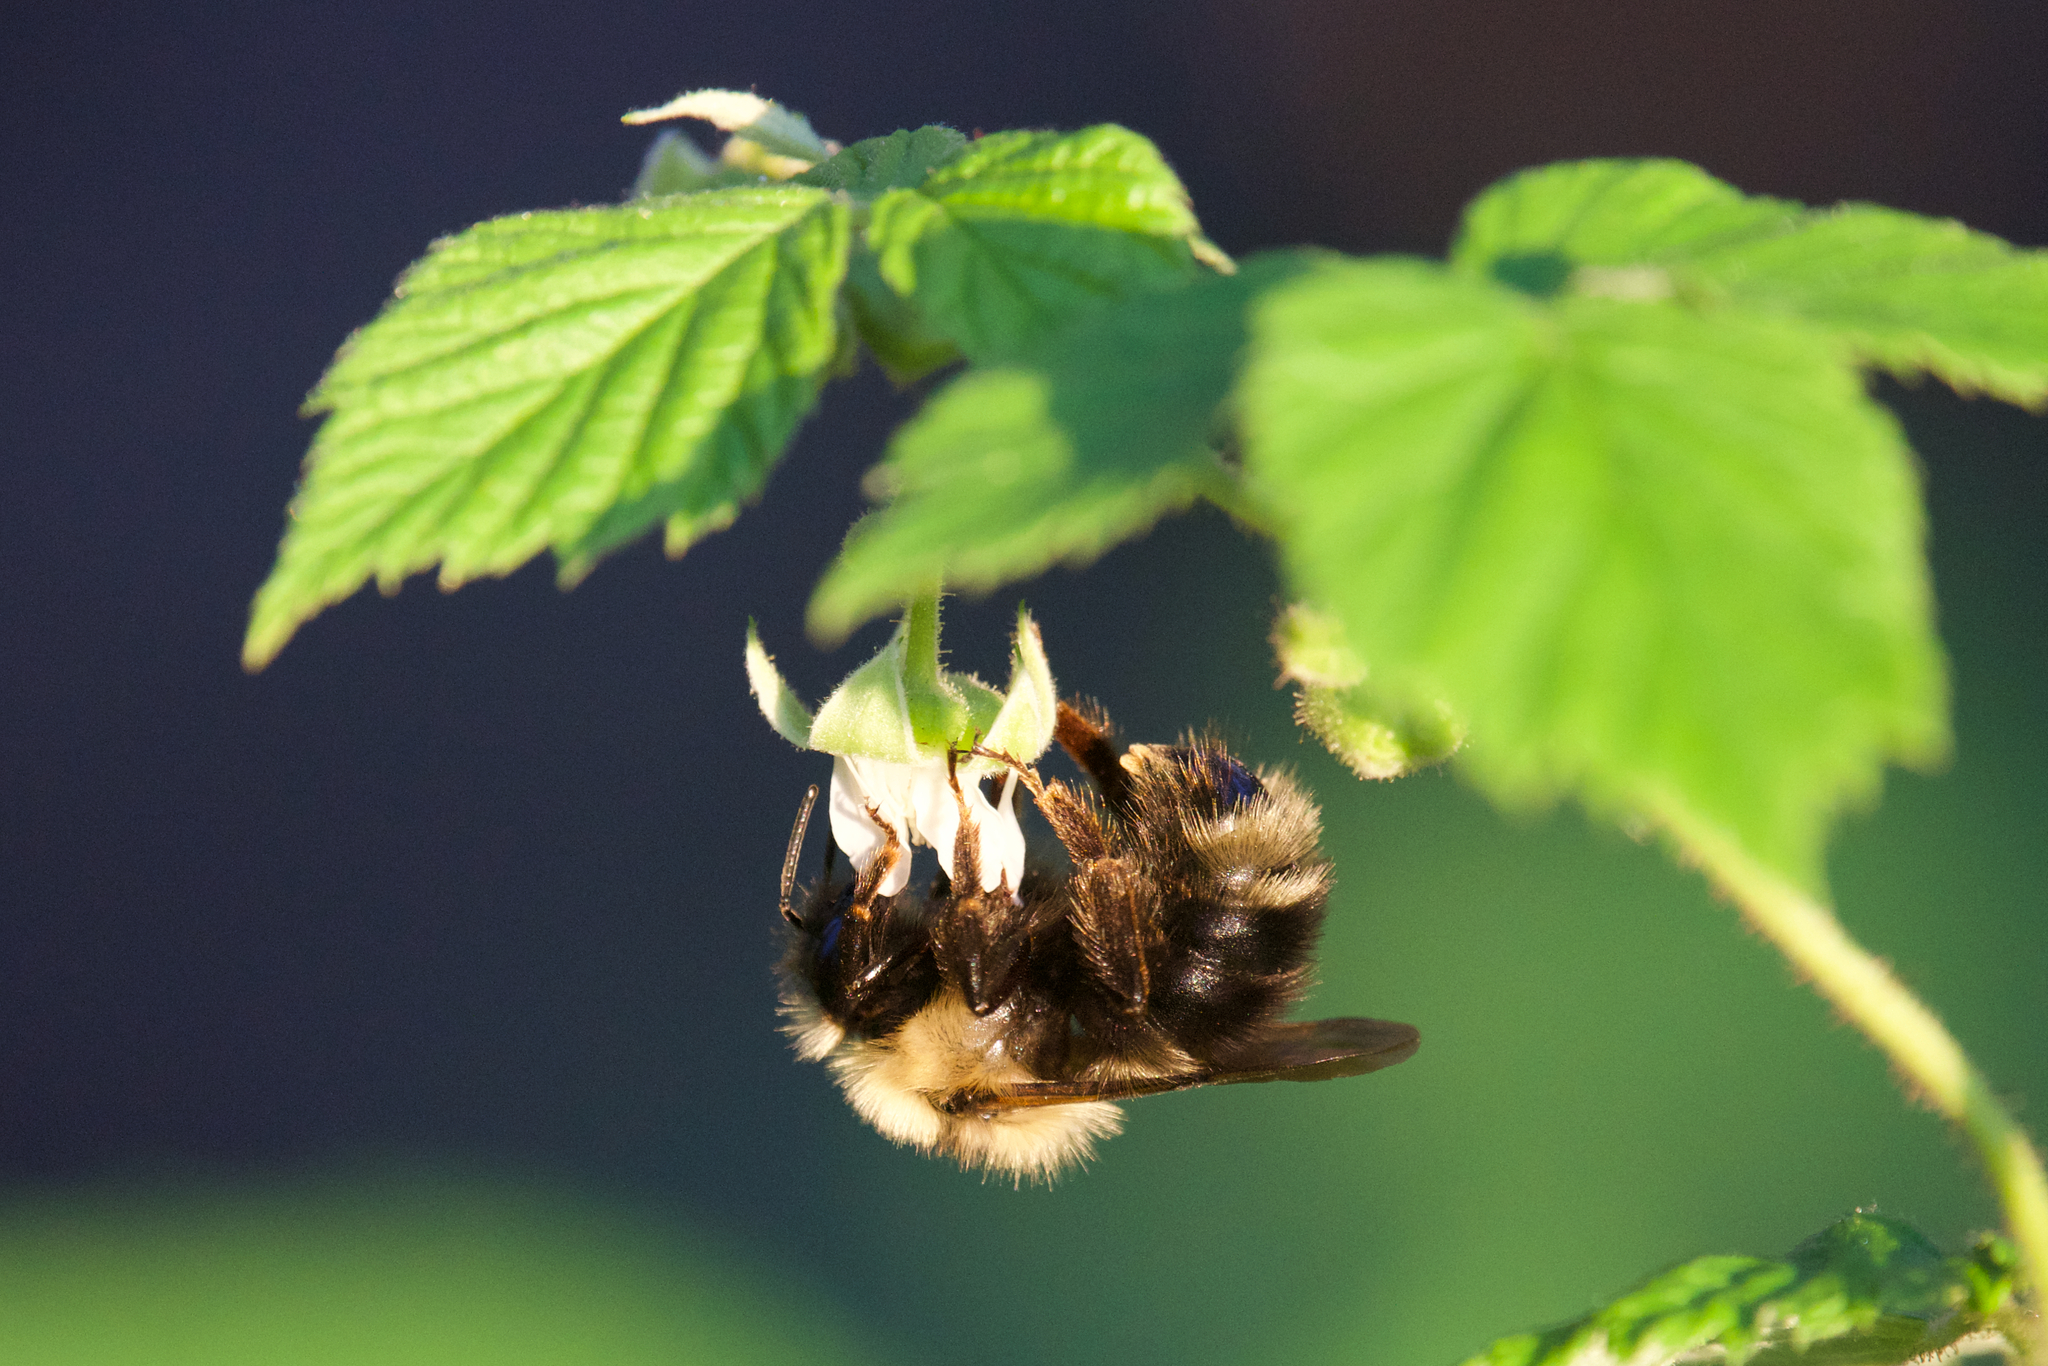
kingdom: Animalia
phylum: Arthropoda
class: Insecta
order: Hymenoptera
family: Apidae
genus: Bombus
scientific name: Bombus flavidus
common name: Fernald cuckoo bumble bee
